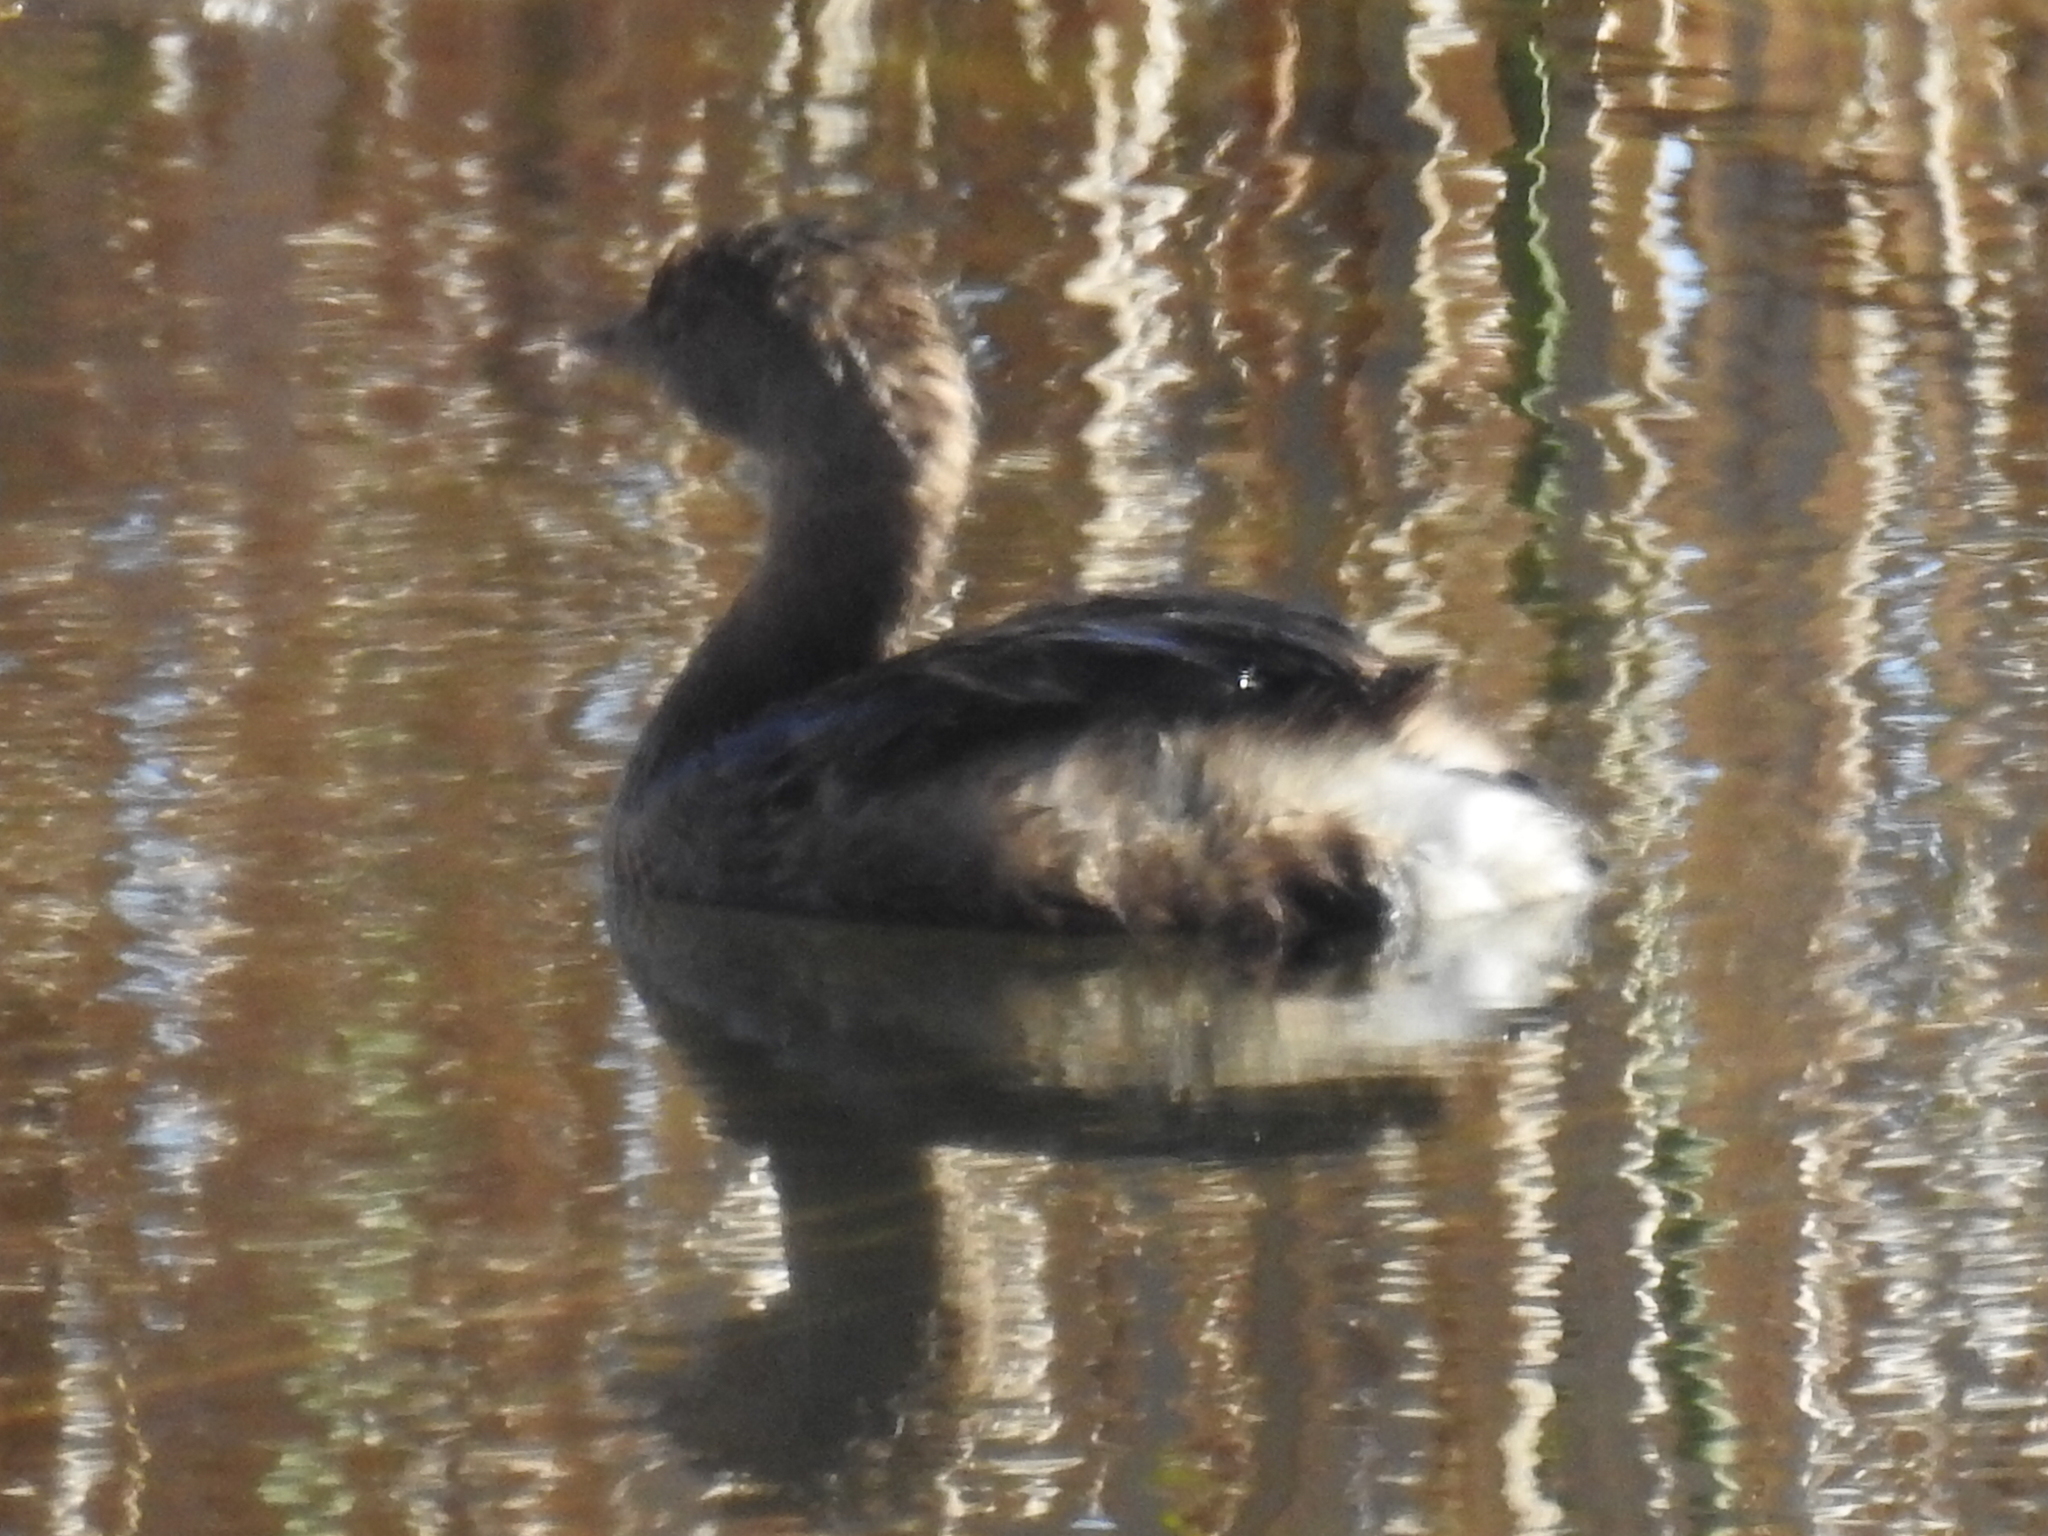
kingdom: Animalia
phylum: Chordata
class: Aves
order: Podicipediformes
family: Podicipedidae
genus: Podilymbus
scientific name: Podilymbus podiceps
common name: Pied-billed grebe
